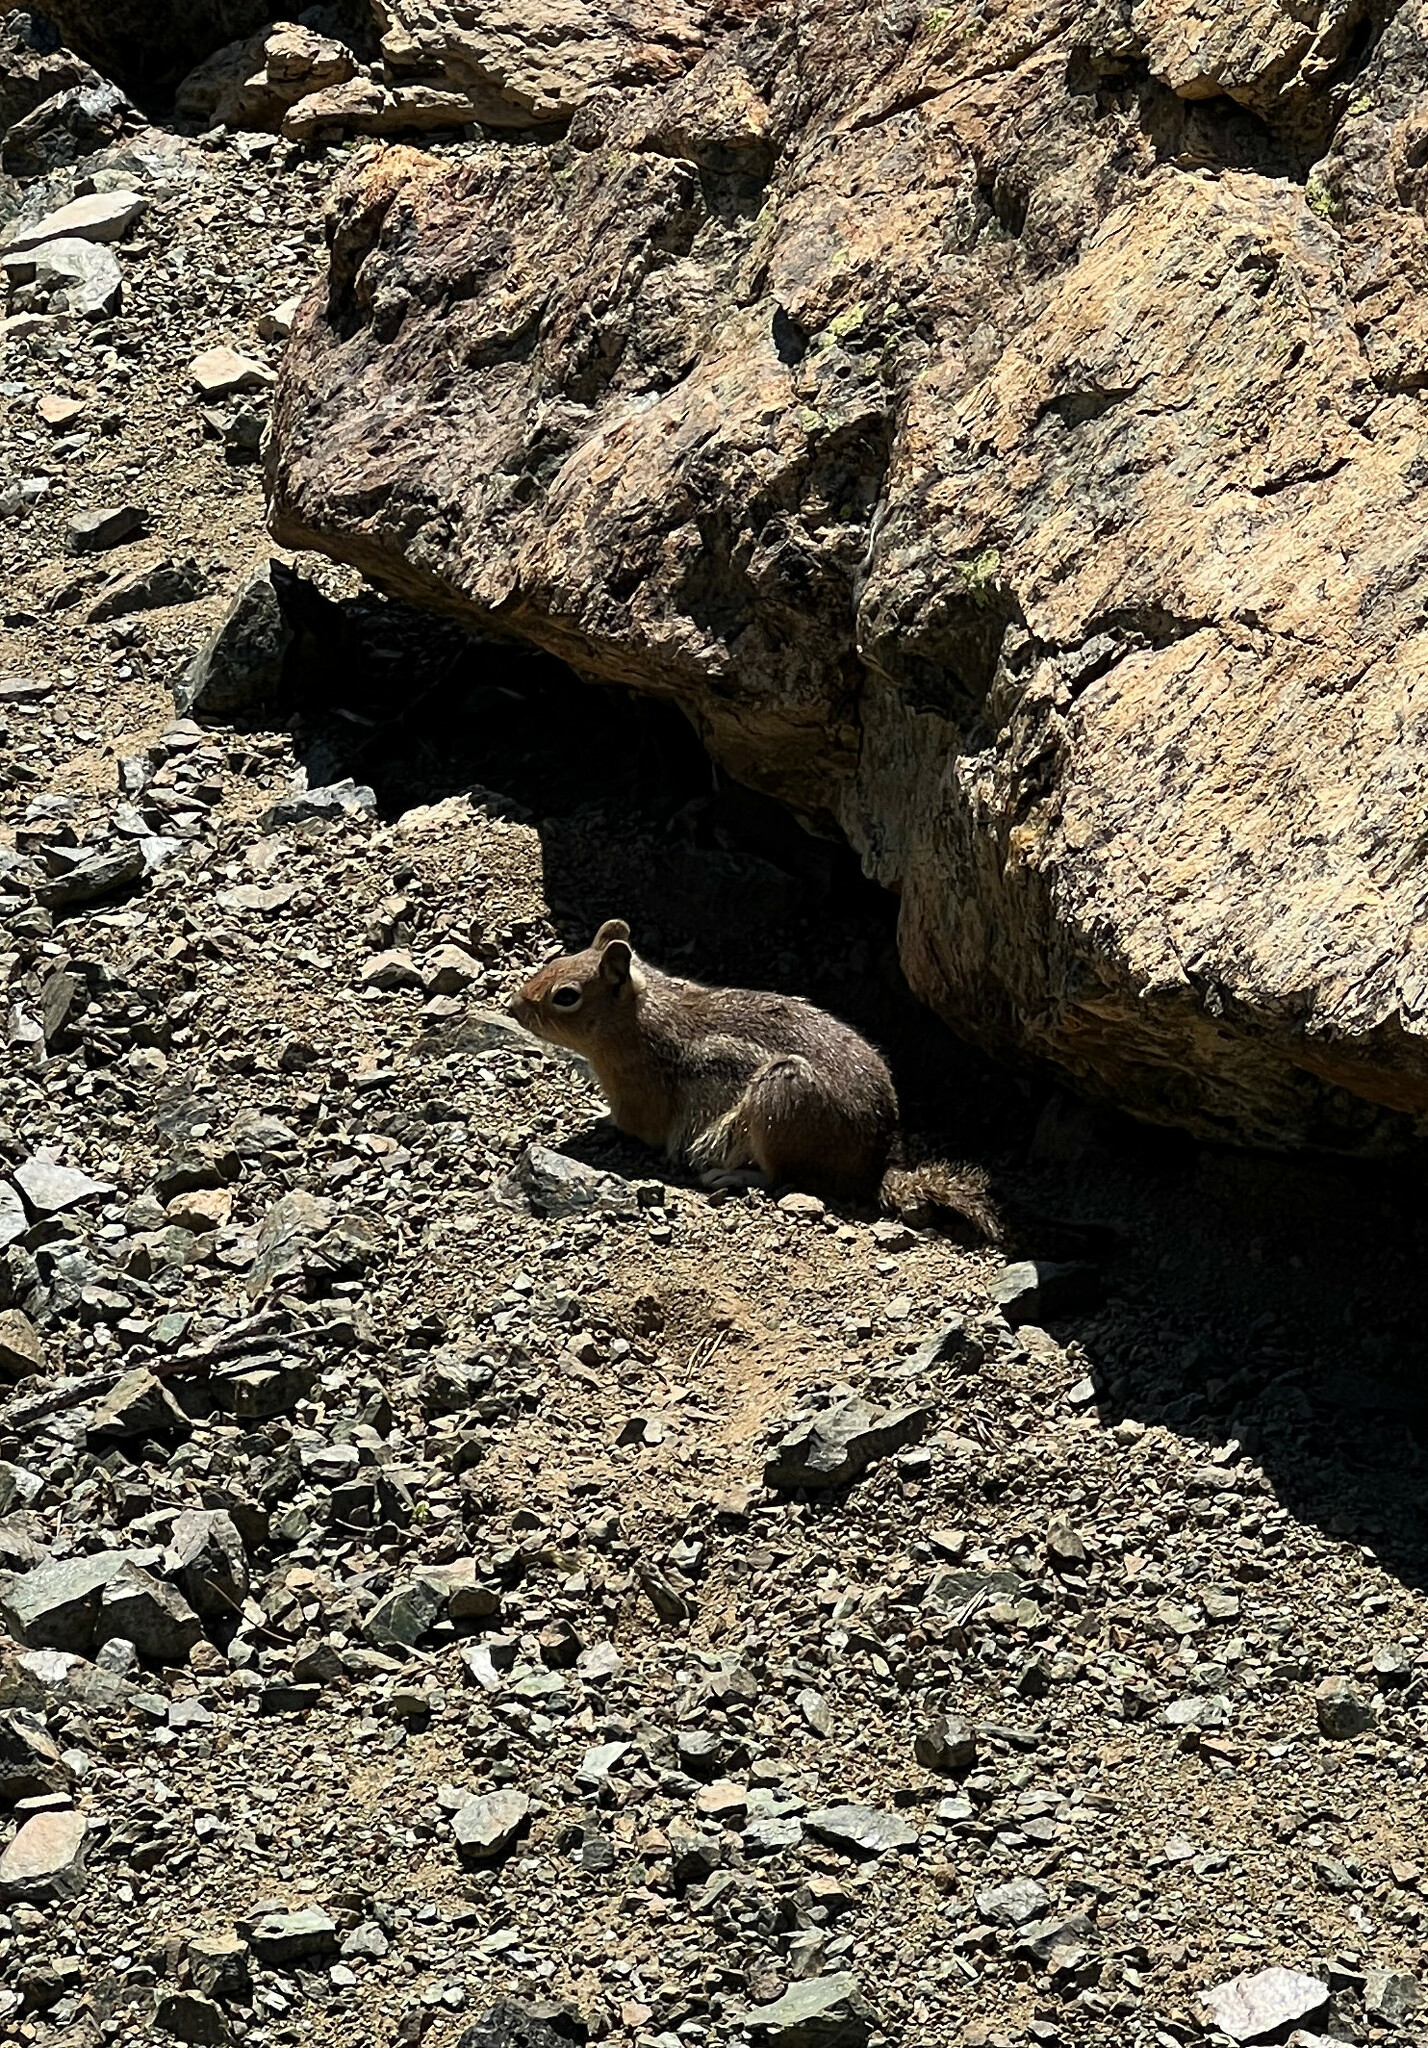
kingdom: Animalia
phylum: Chordata
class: Mammalia
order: Rodentia
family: Sciuridae
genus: Callospermophilus
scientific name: Callospermophilus saturatus
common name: Cascade golden-mantled ground squirrel
